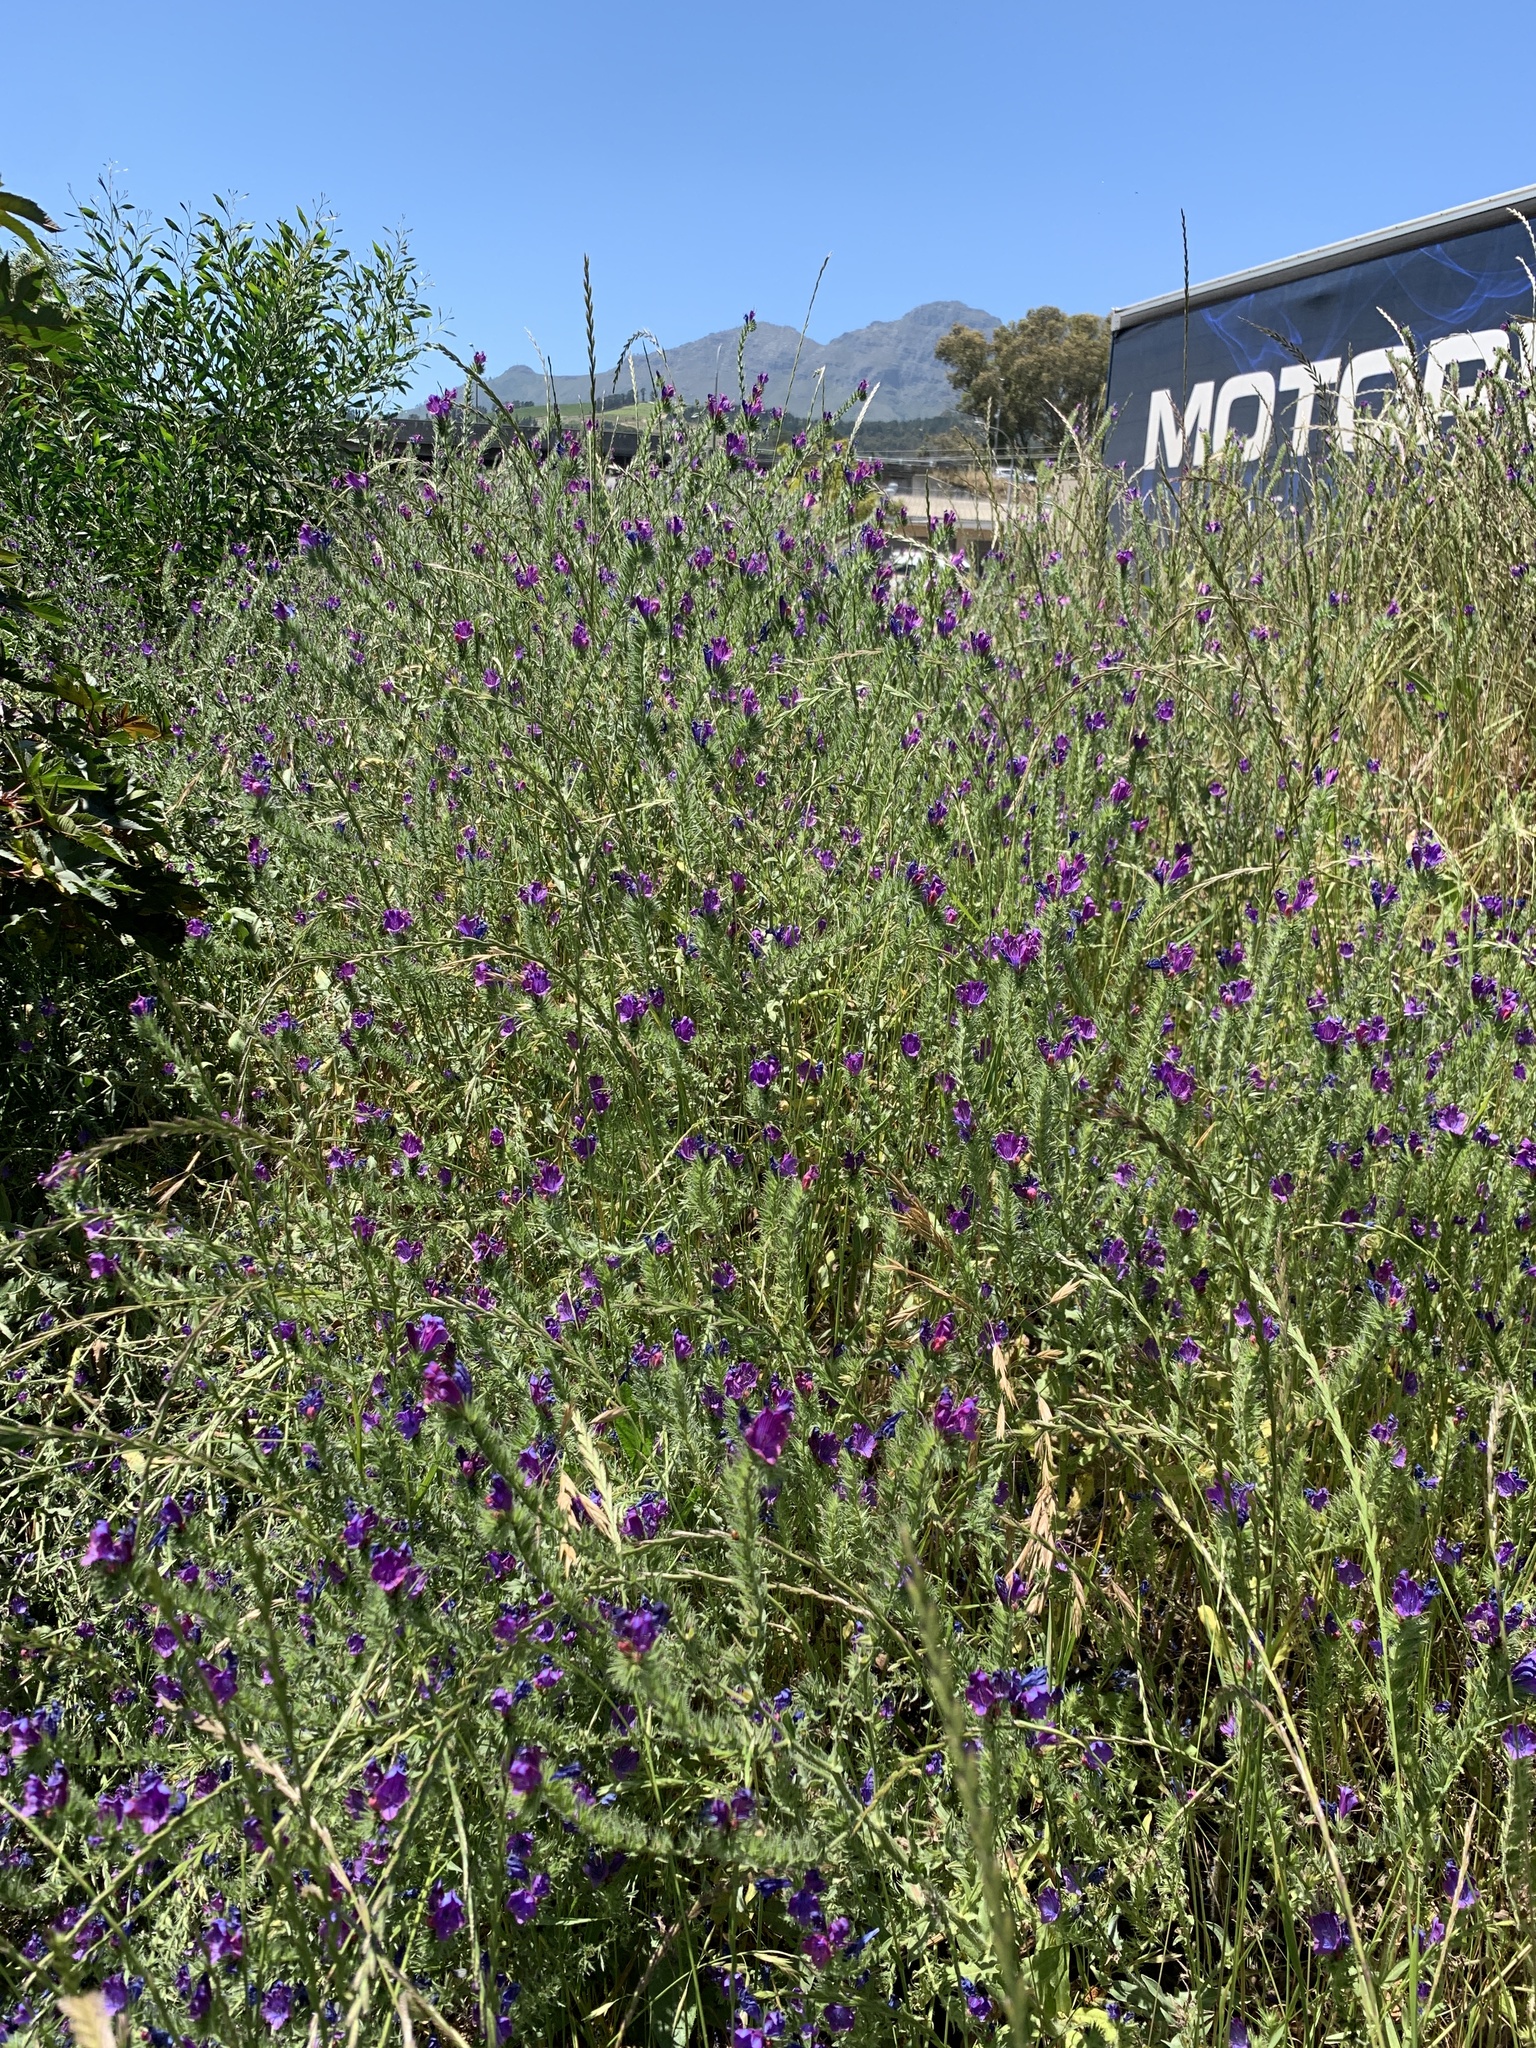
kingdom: Plantae
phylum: Tracheophyta
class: Magnoliopsida
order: Boraginales
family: Boraginaceae
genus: Echium
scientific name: Echium plantagineum
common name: Purple viper's-bugloss
